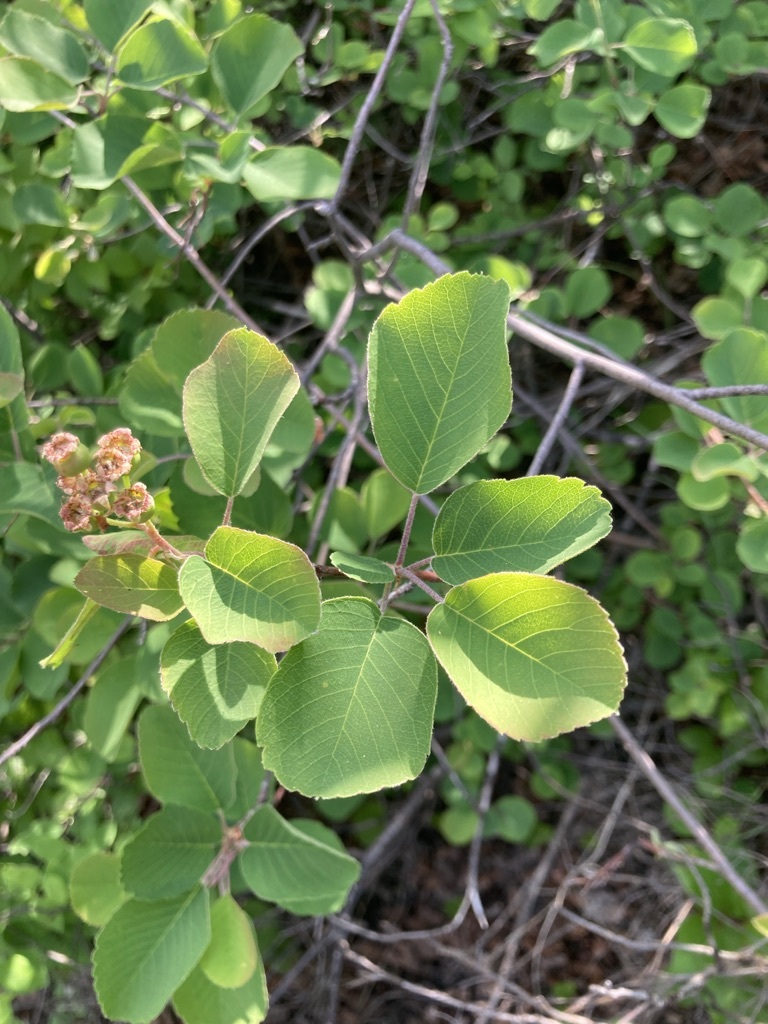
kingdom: Plantae
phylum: Tracheophyta
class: Magnoliopsida
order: Rosales
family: Rosaceae
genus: Amelanchier
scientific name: Amelanchier alnifolia
